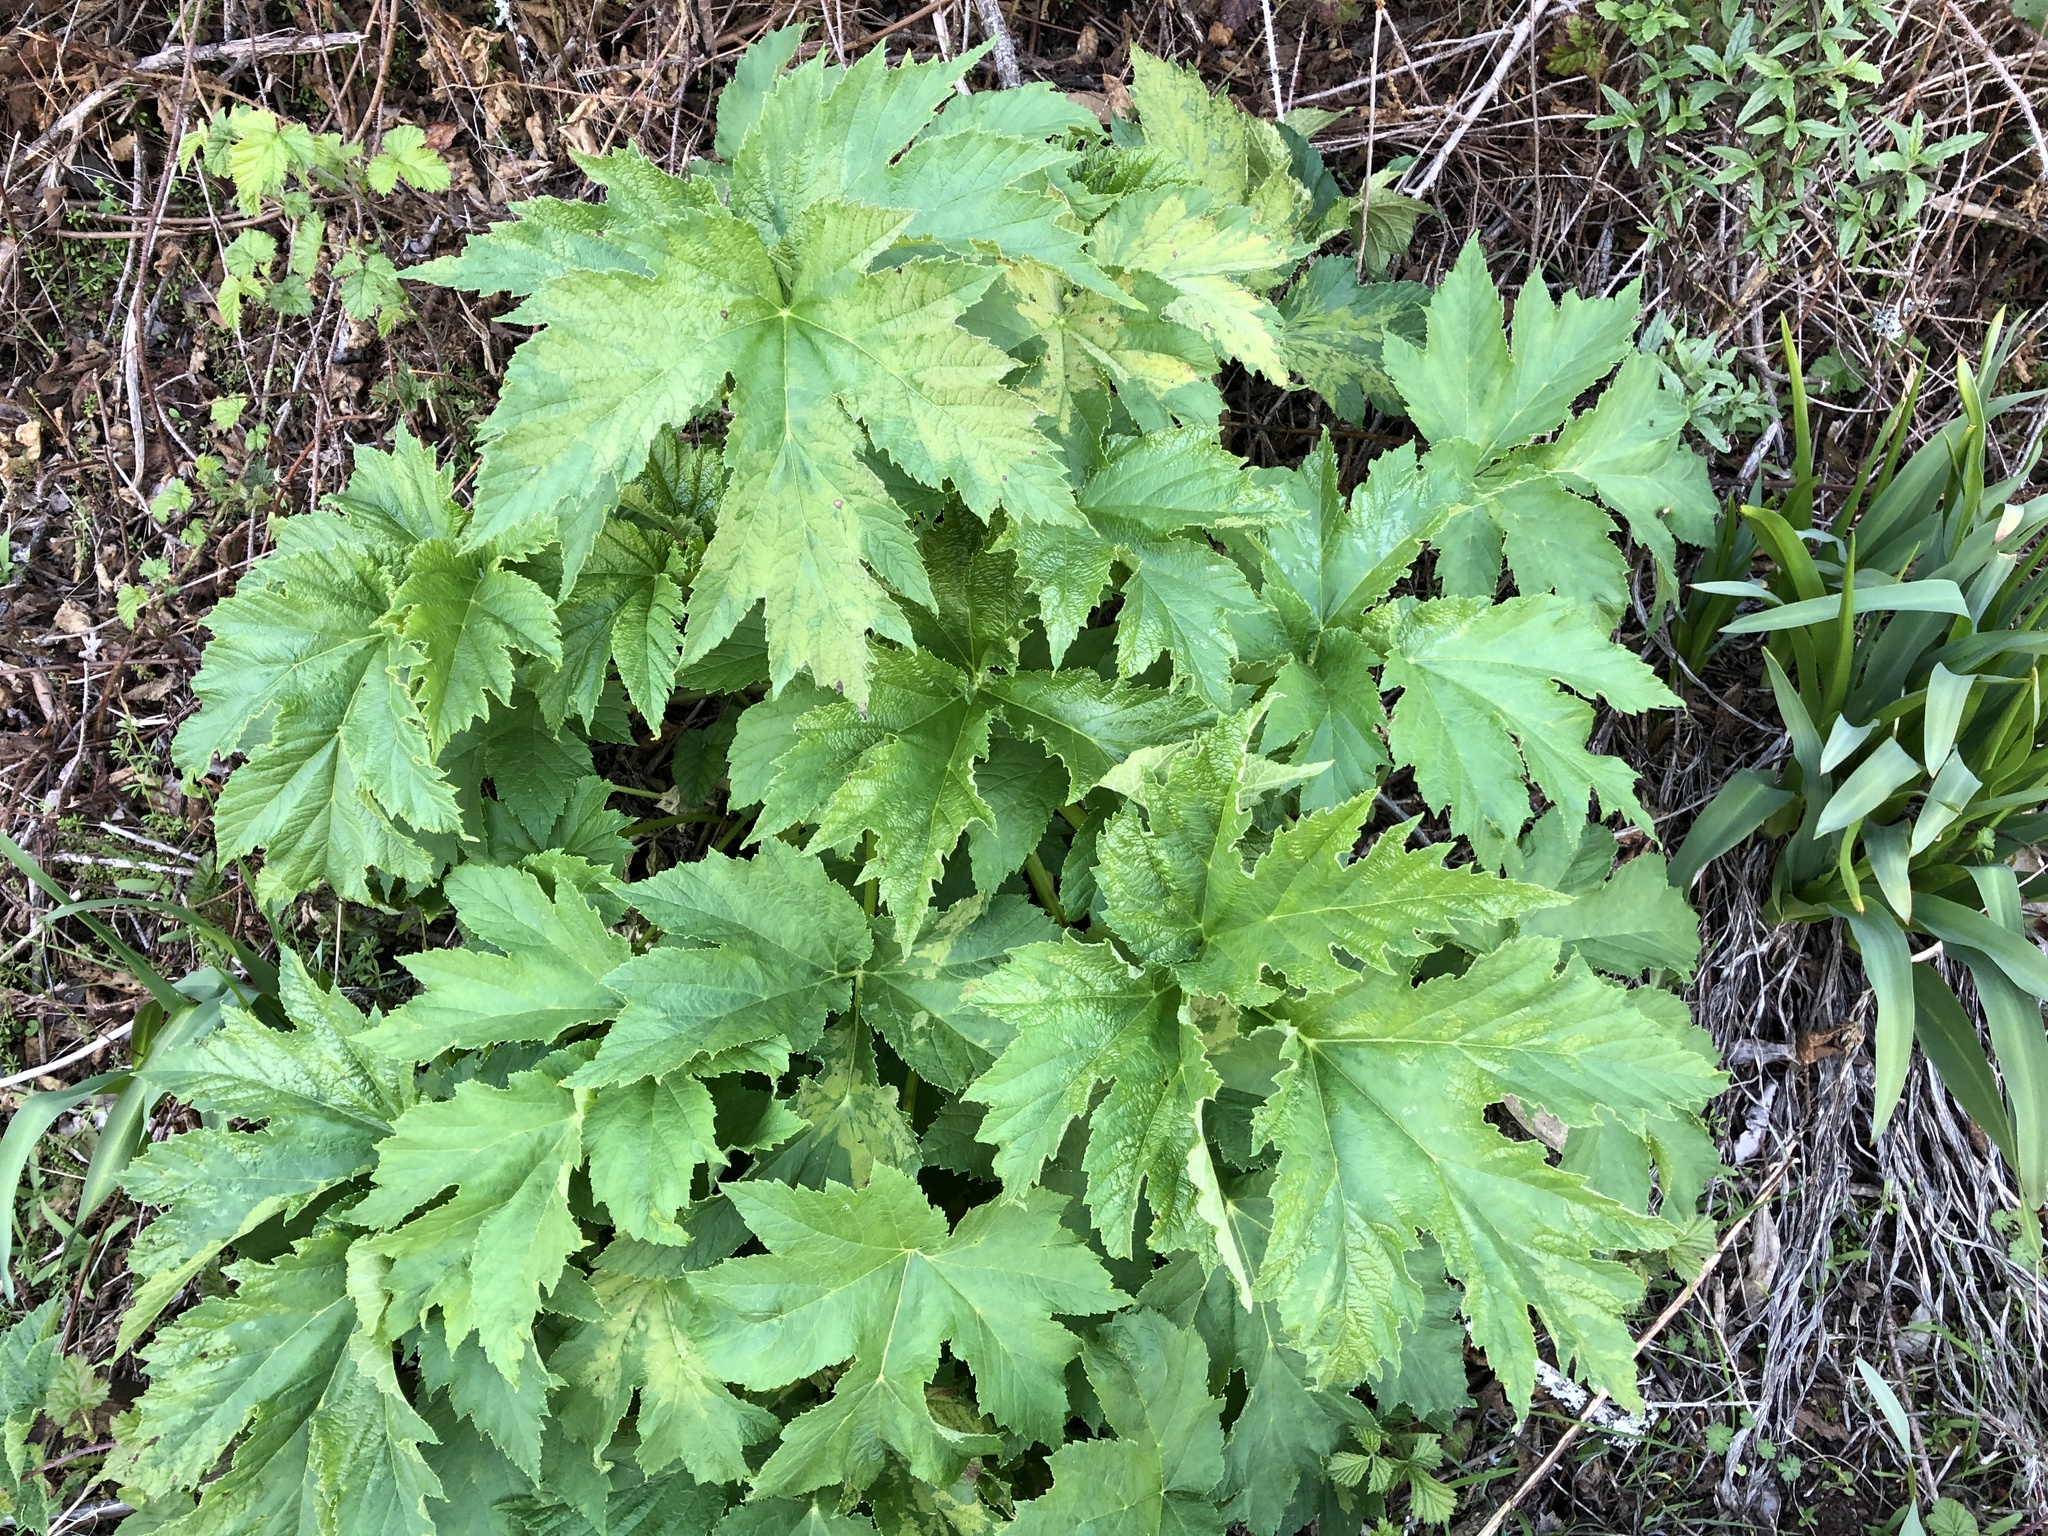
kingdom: Plantae
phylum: Tracheophyta
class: Magnoliopsida
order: Apiales
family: Apiaceae
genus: Heracleum
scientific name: Heracleum maximum
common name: American cow parsnip
